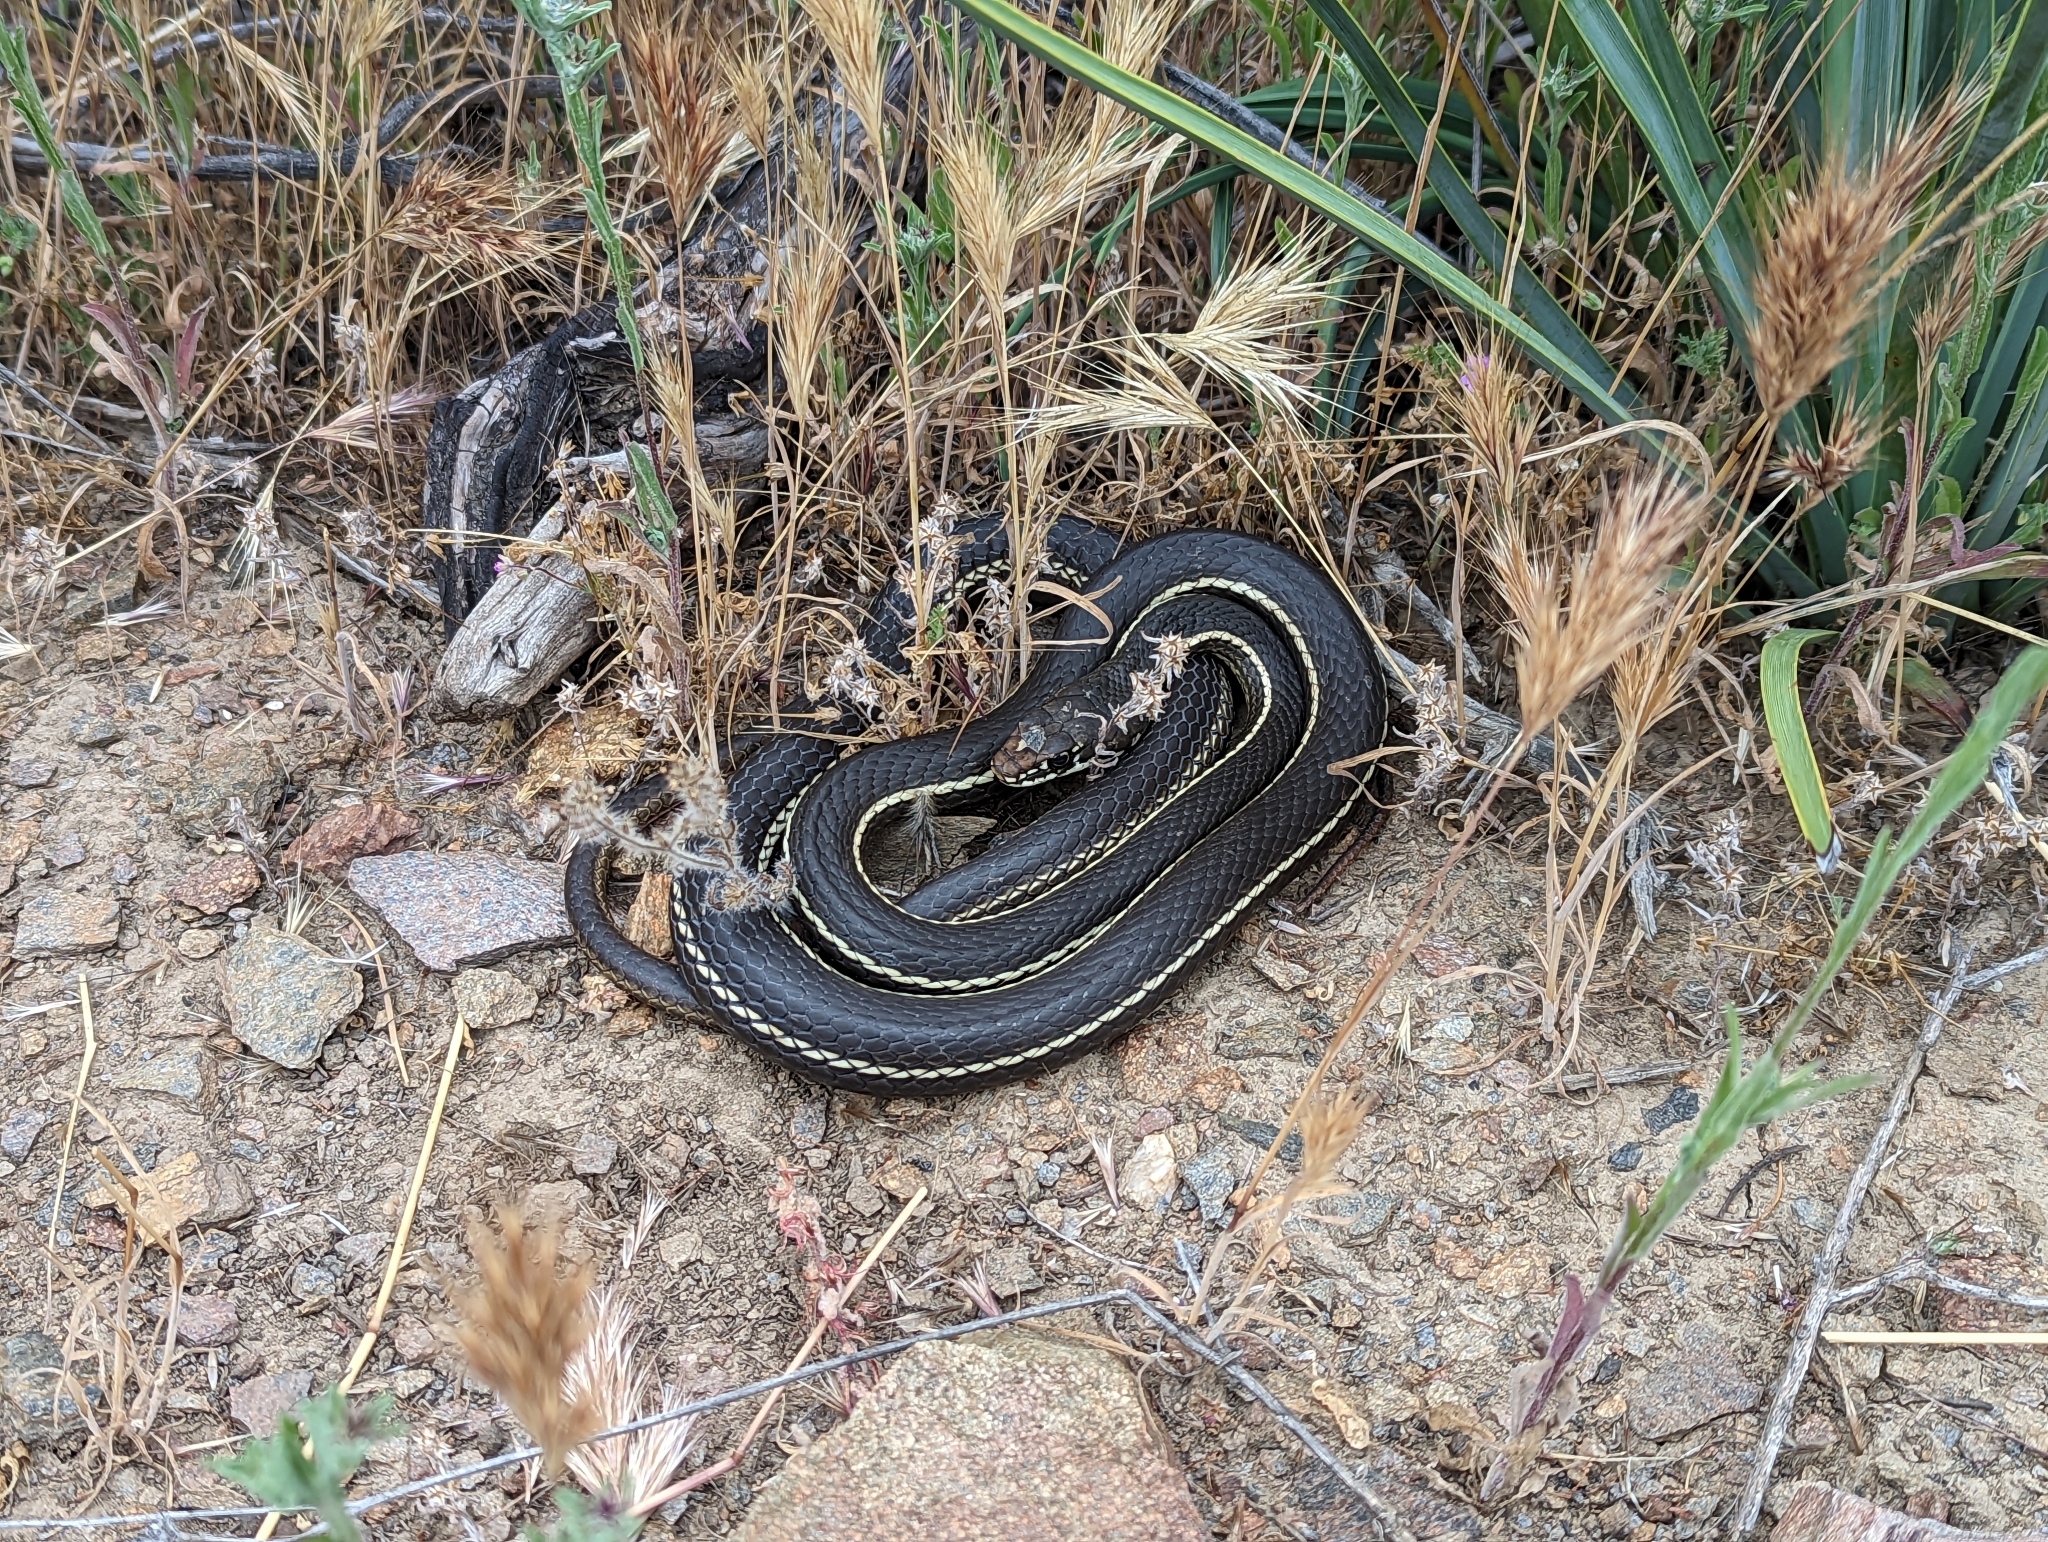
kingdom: Animalia
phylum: Chordata
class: Squamata
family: Colubridae
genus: Masticophis
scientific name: Masticophis lateralis
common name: Striped racer
